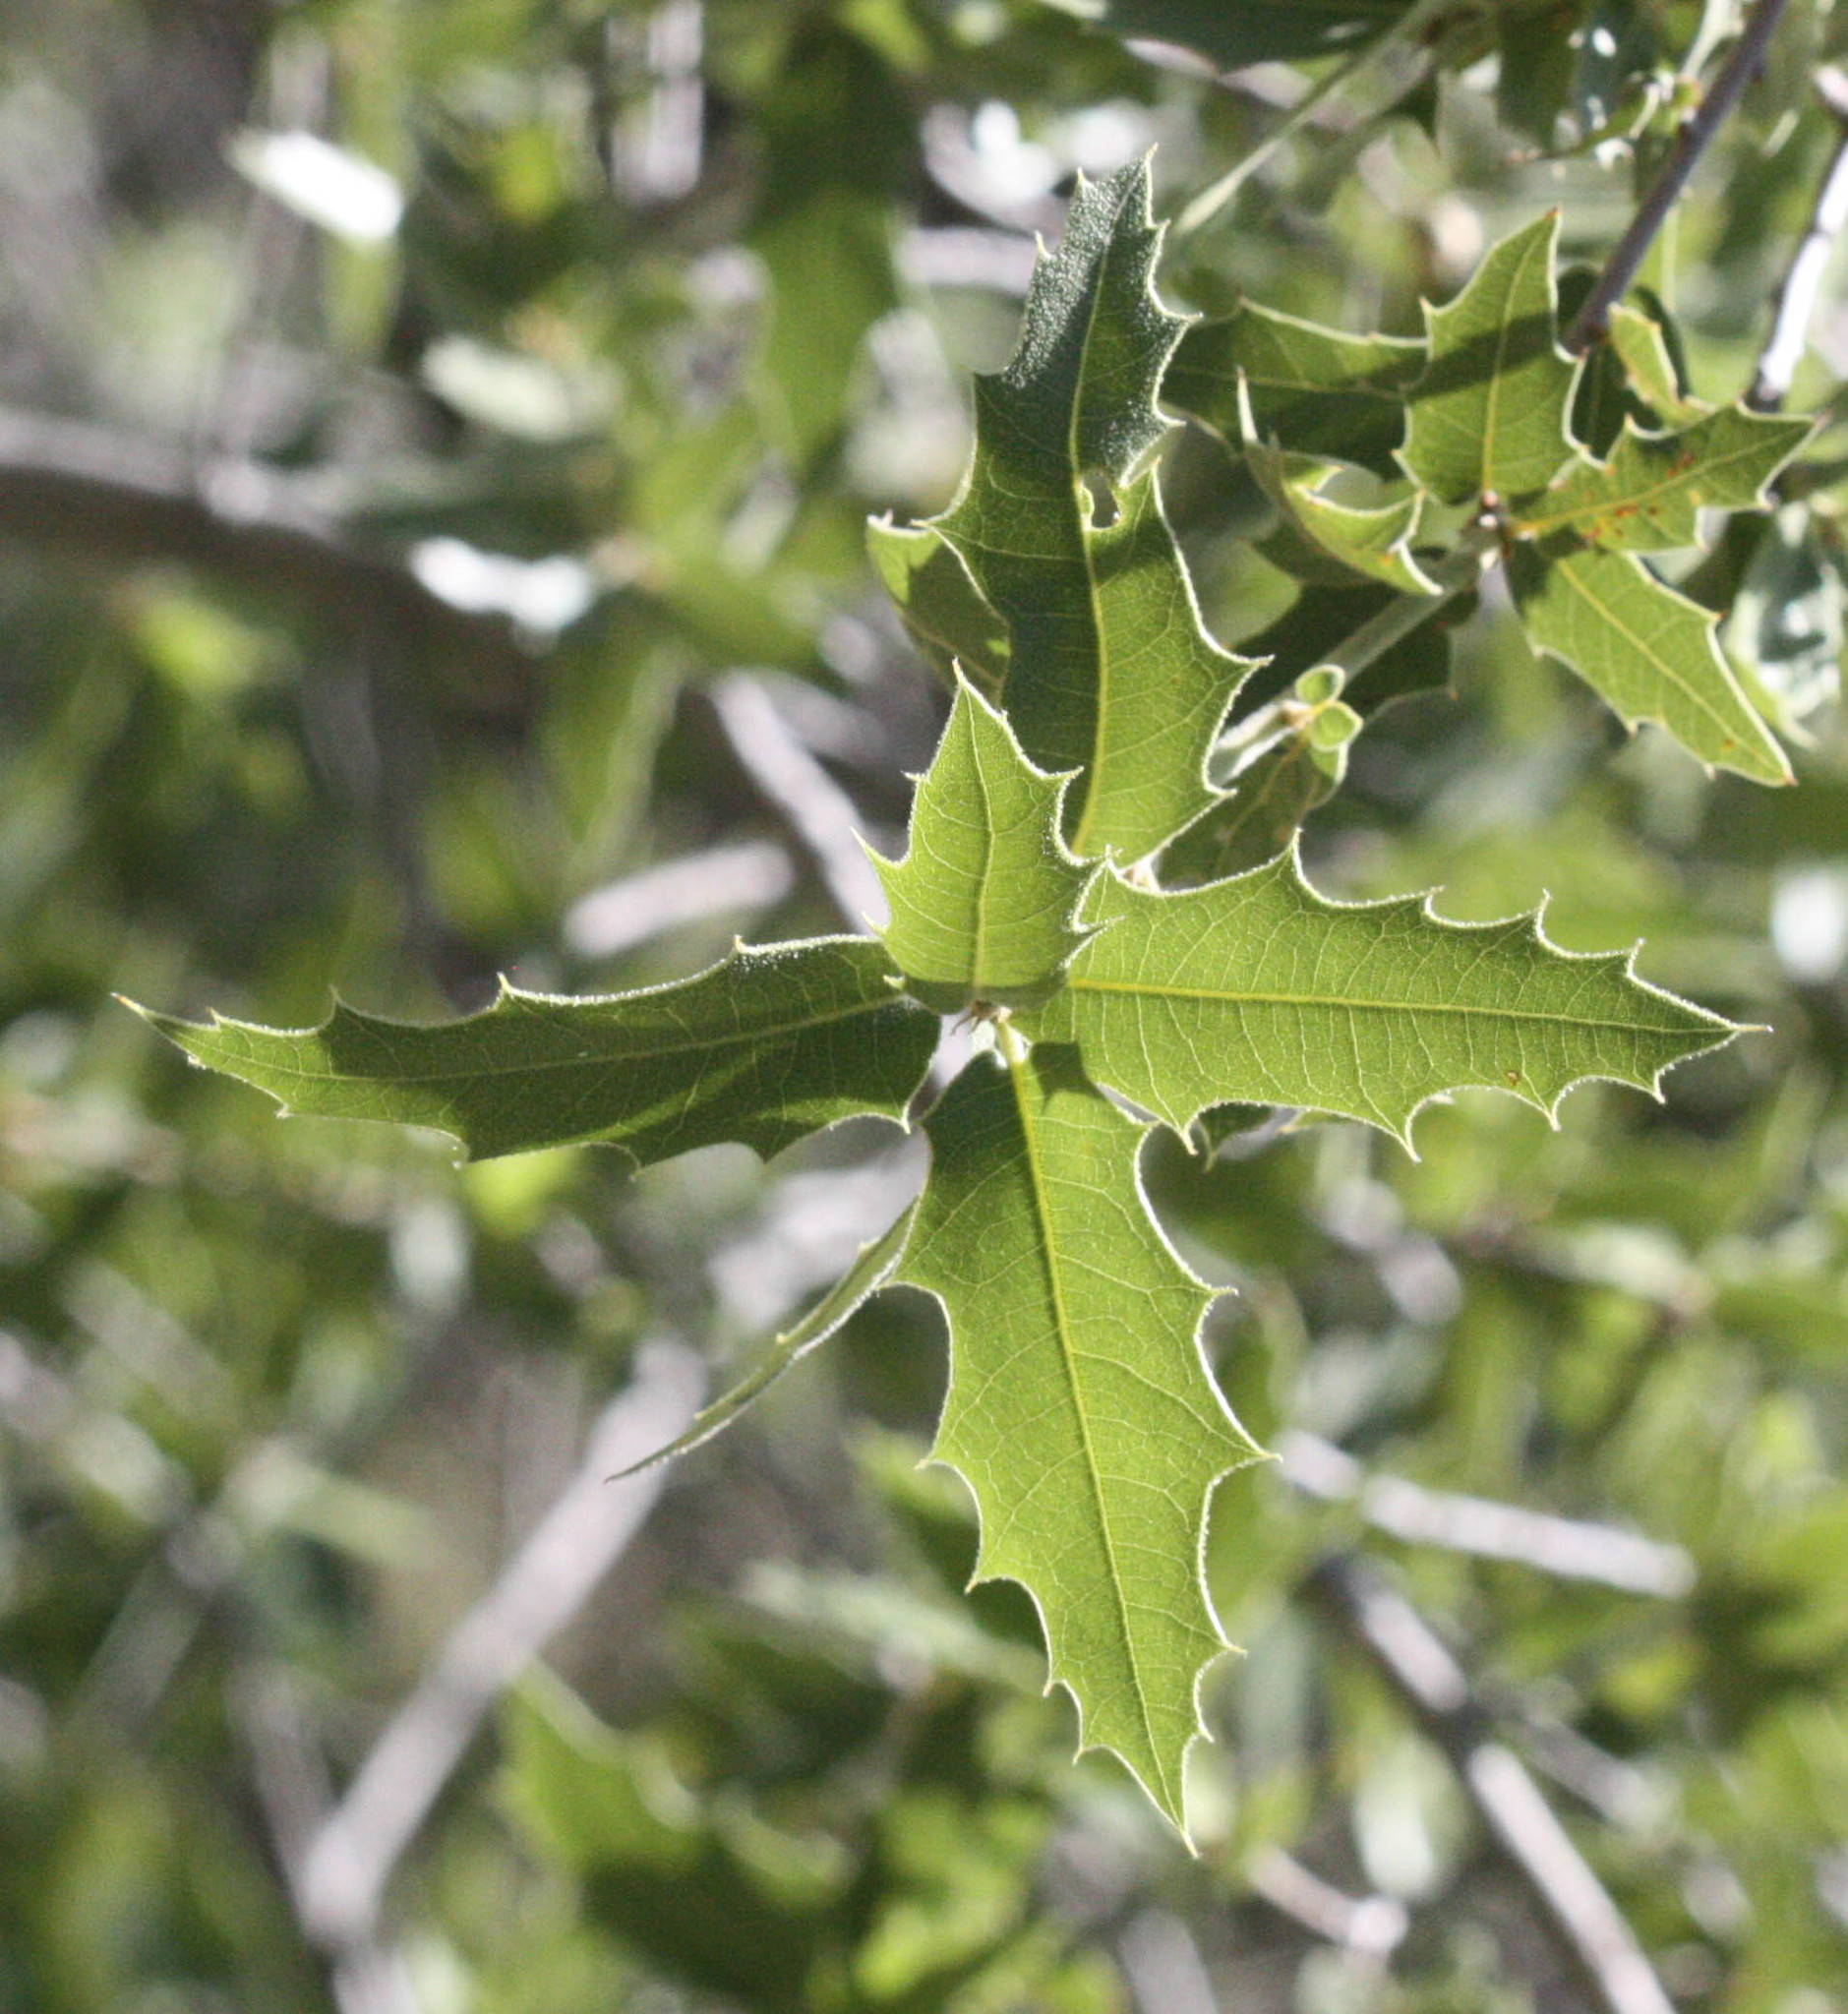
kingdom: Plantae
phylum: Tracheophyta
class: Magnoliopsida
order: Fagales
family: Fagaceae
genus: Quercus
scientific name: Quercus emoryi
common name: Emory oak
